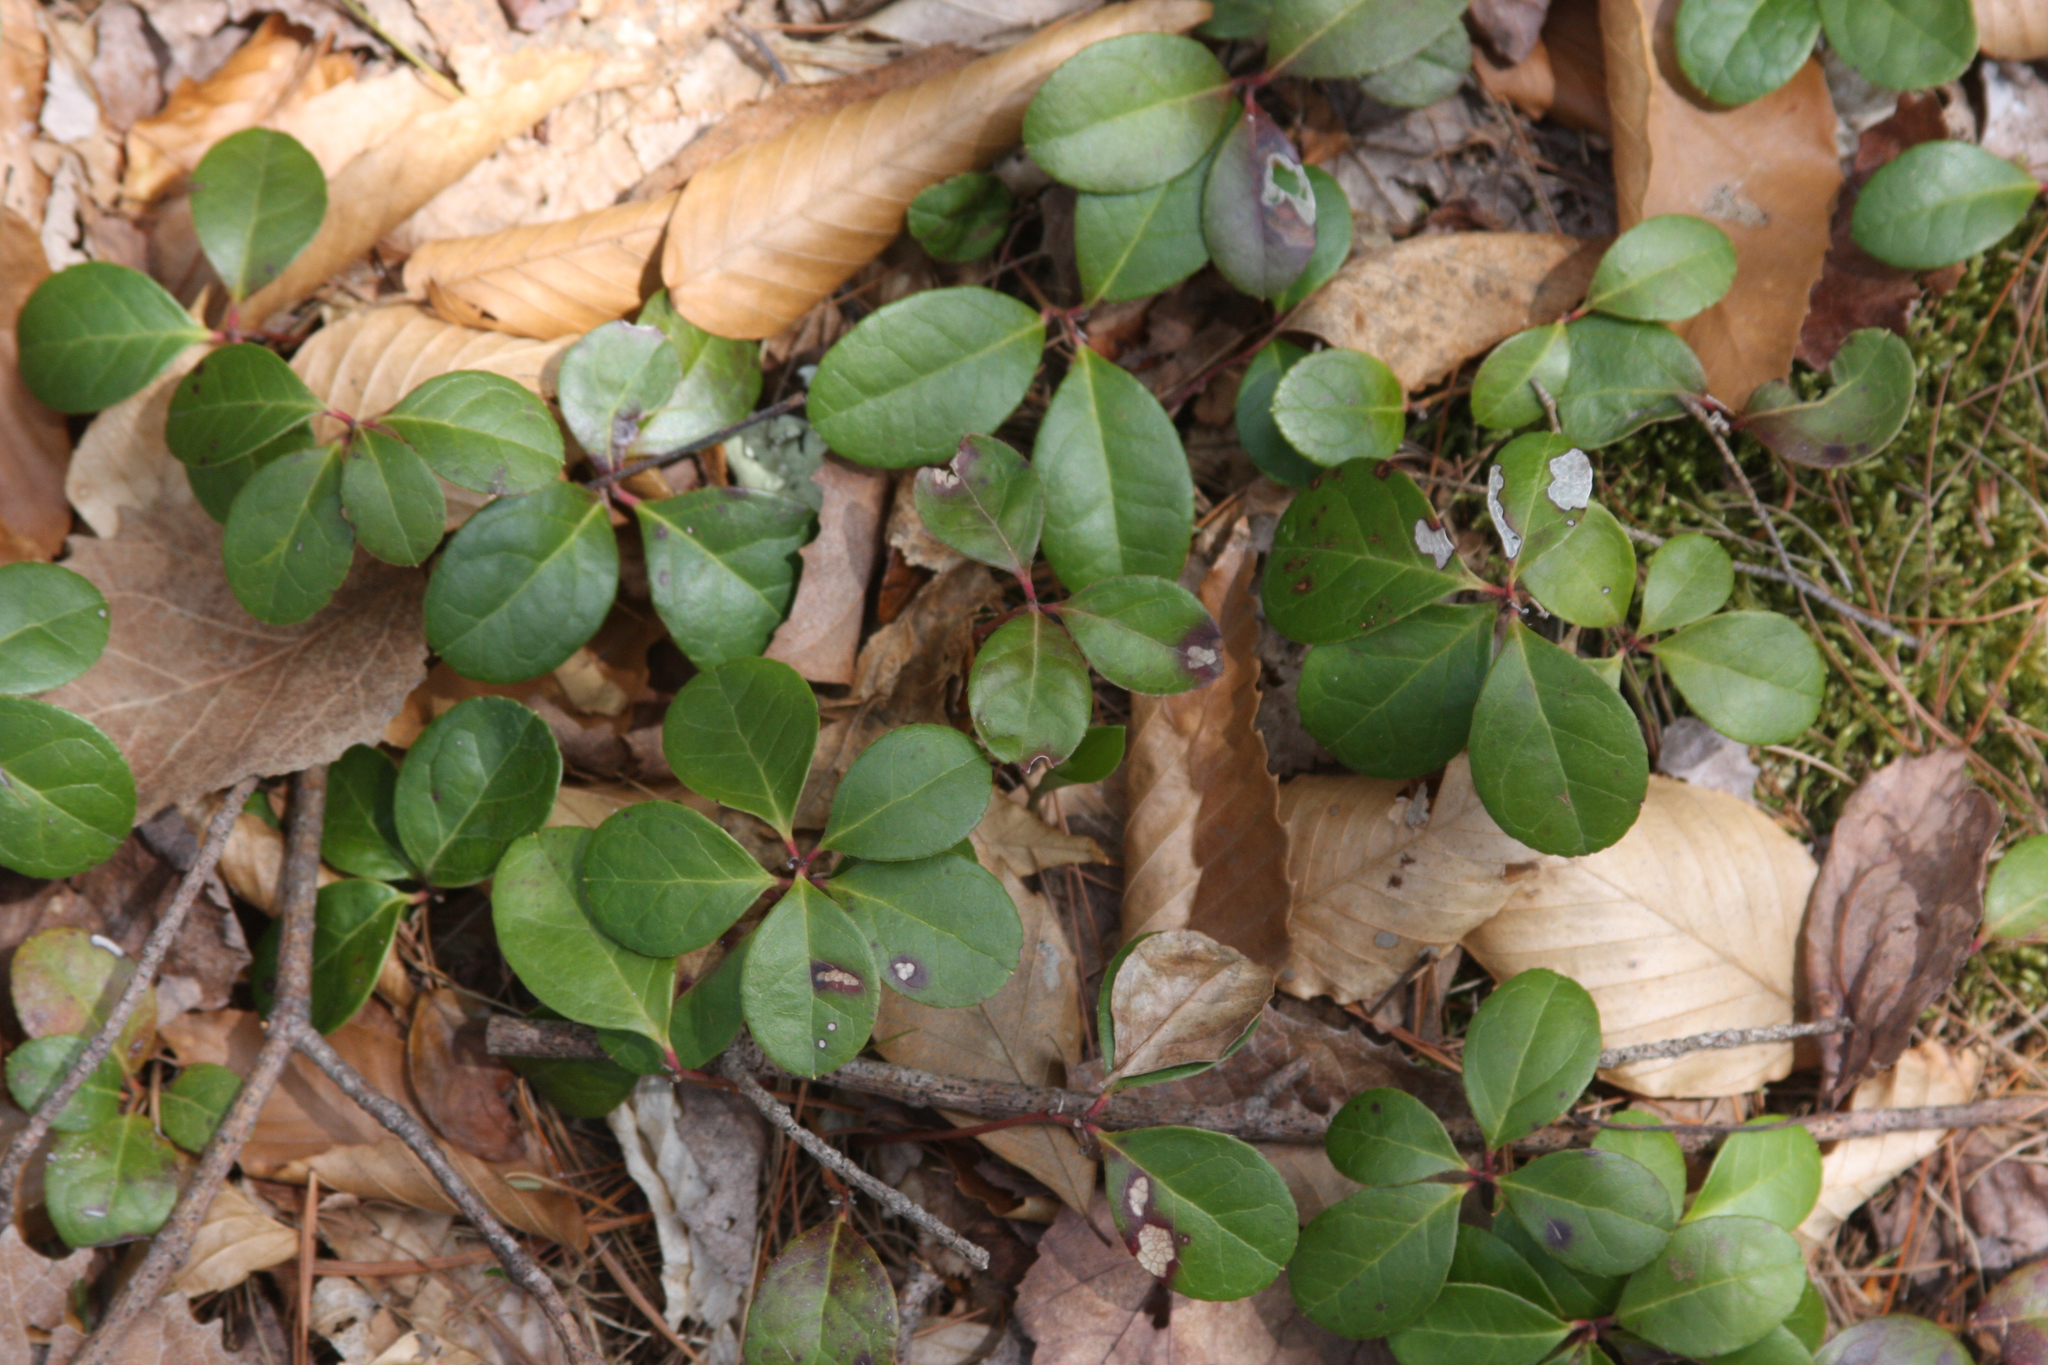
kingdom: Plantae
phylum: Tracheophyta
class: Magnoliopsida
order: Ericales
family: Ericaceae
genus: Gaultheria
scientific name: Gaultheria procumbens
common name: Checkerberry
